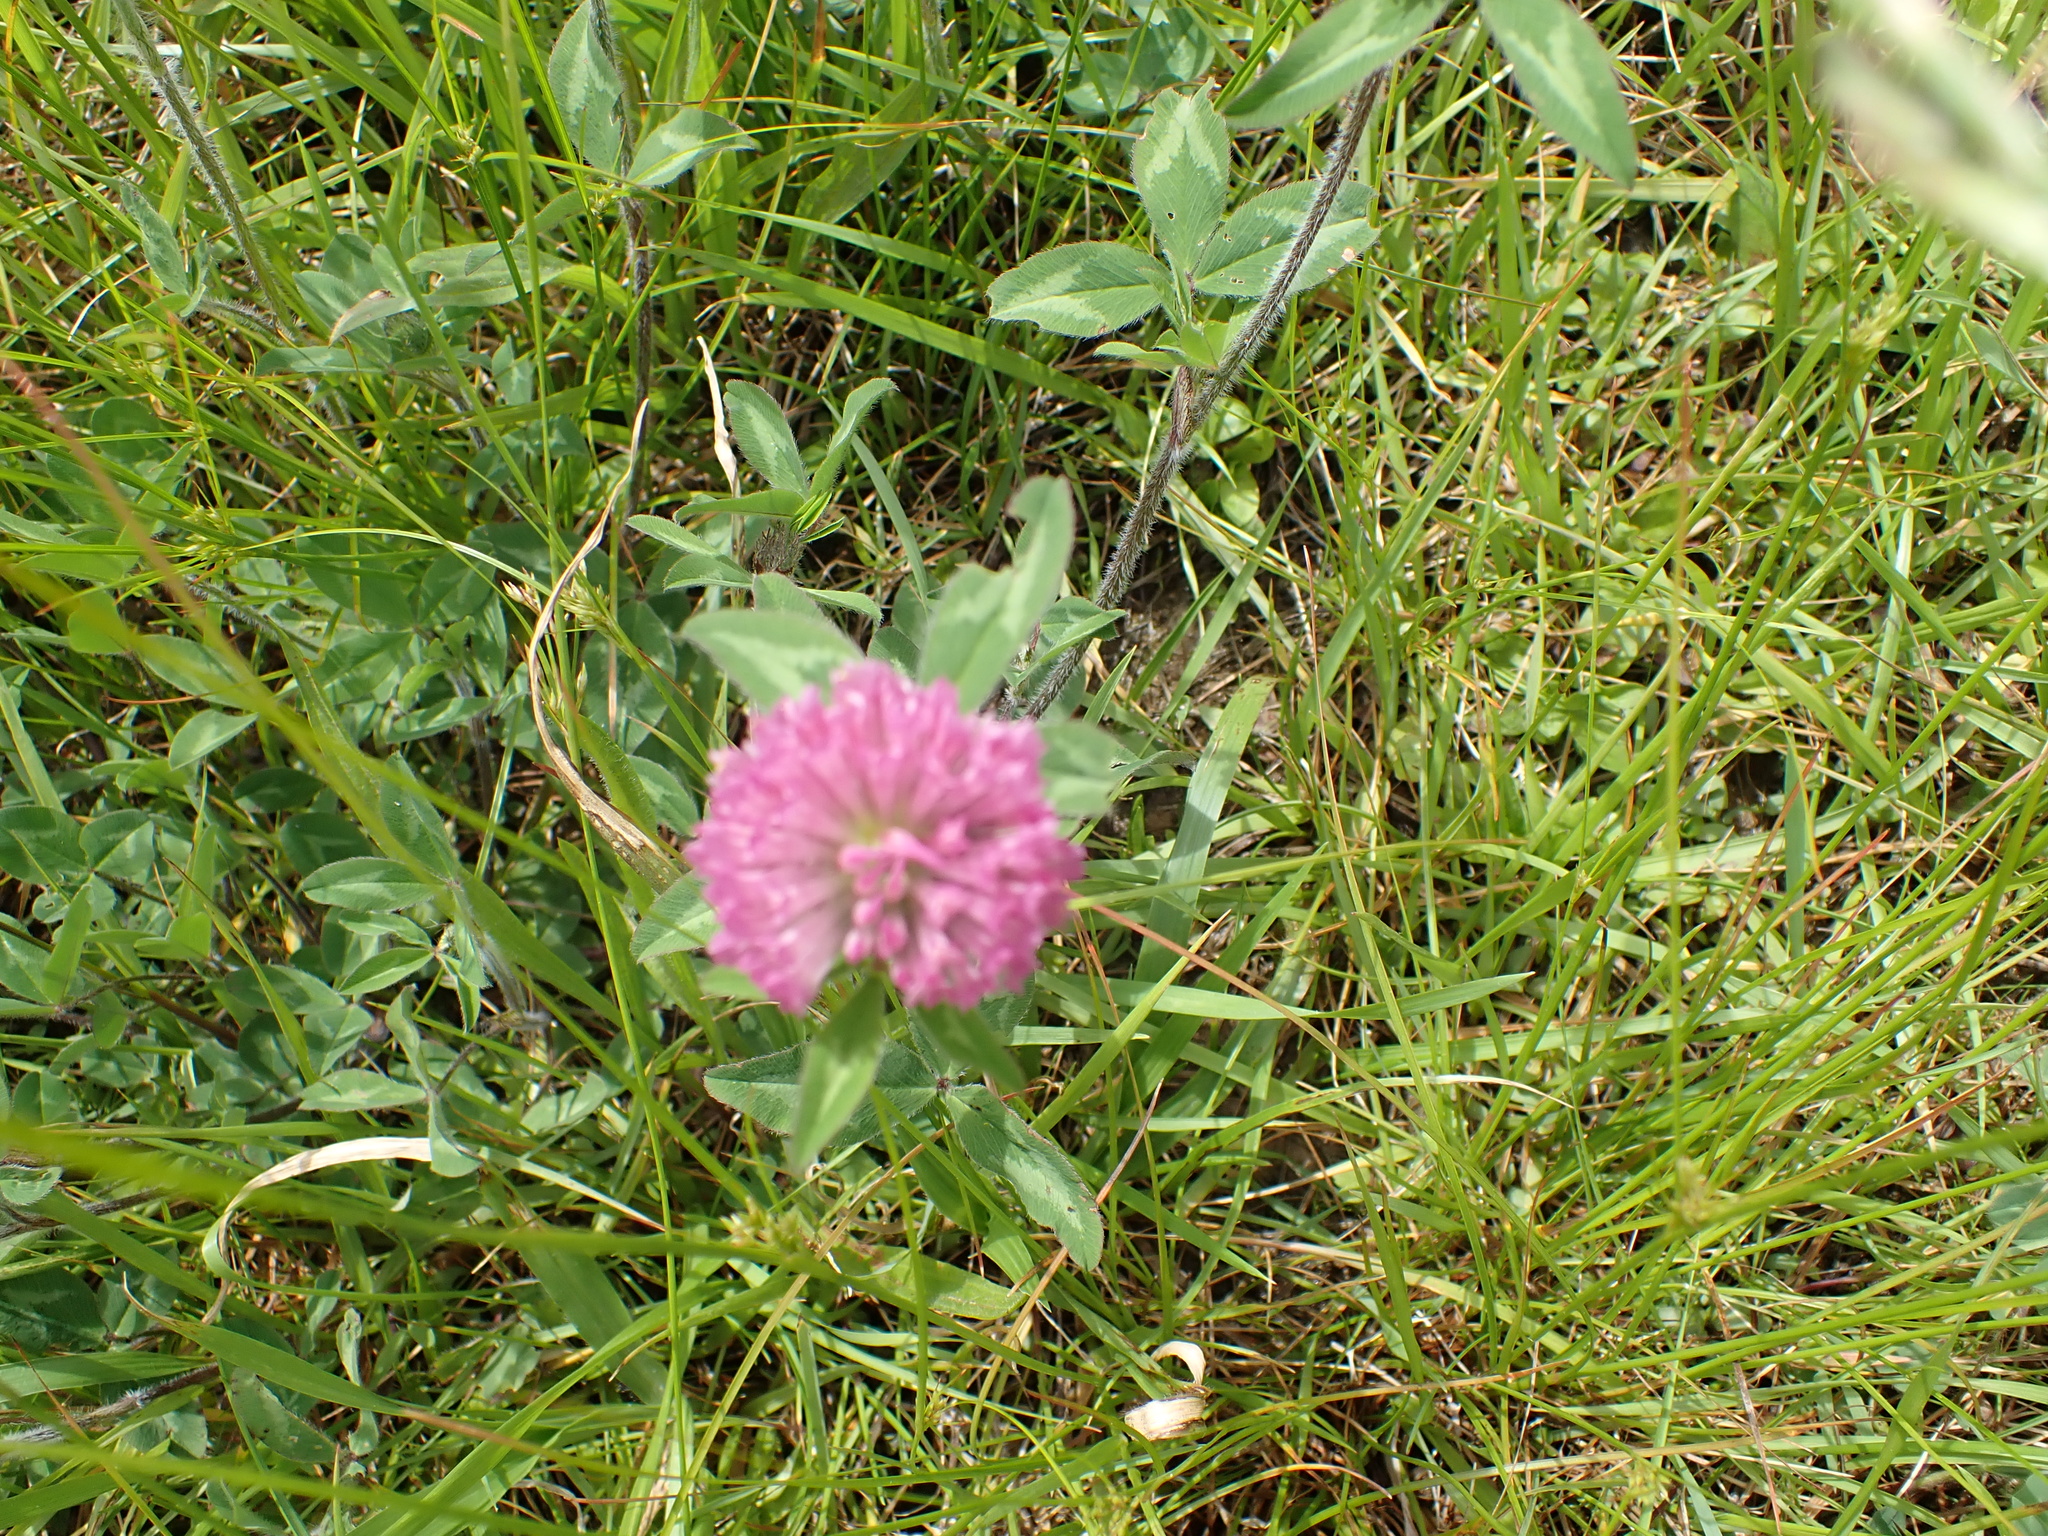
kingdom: Plantae
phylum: Tracheophyta
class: Magnoliopsida
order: Fabales
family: Fabaceae
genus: Trifolium
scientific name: Trifolium pratense
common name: Red clover
